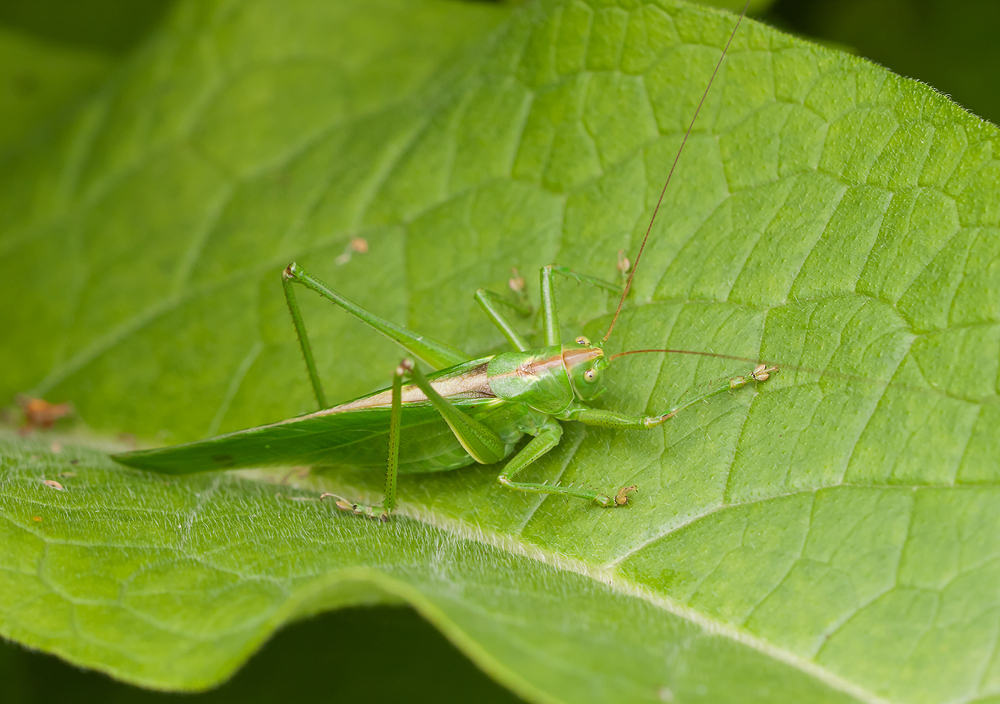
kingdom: Animalia
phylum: Arthropoda
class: Insecta
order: Orthoptera
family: Tettigoniidae
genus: Tettigonia
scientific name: Tettigonia viridissima
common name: Great green bush-cricket
